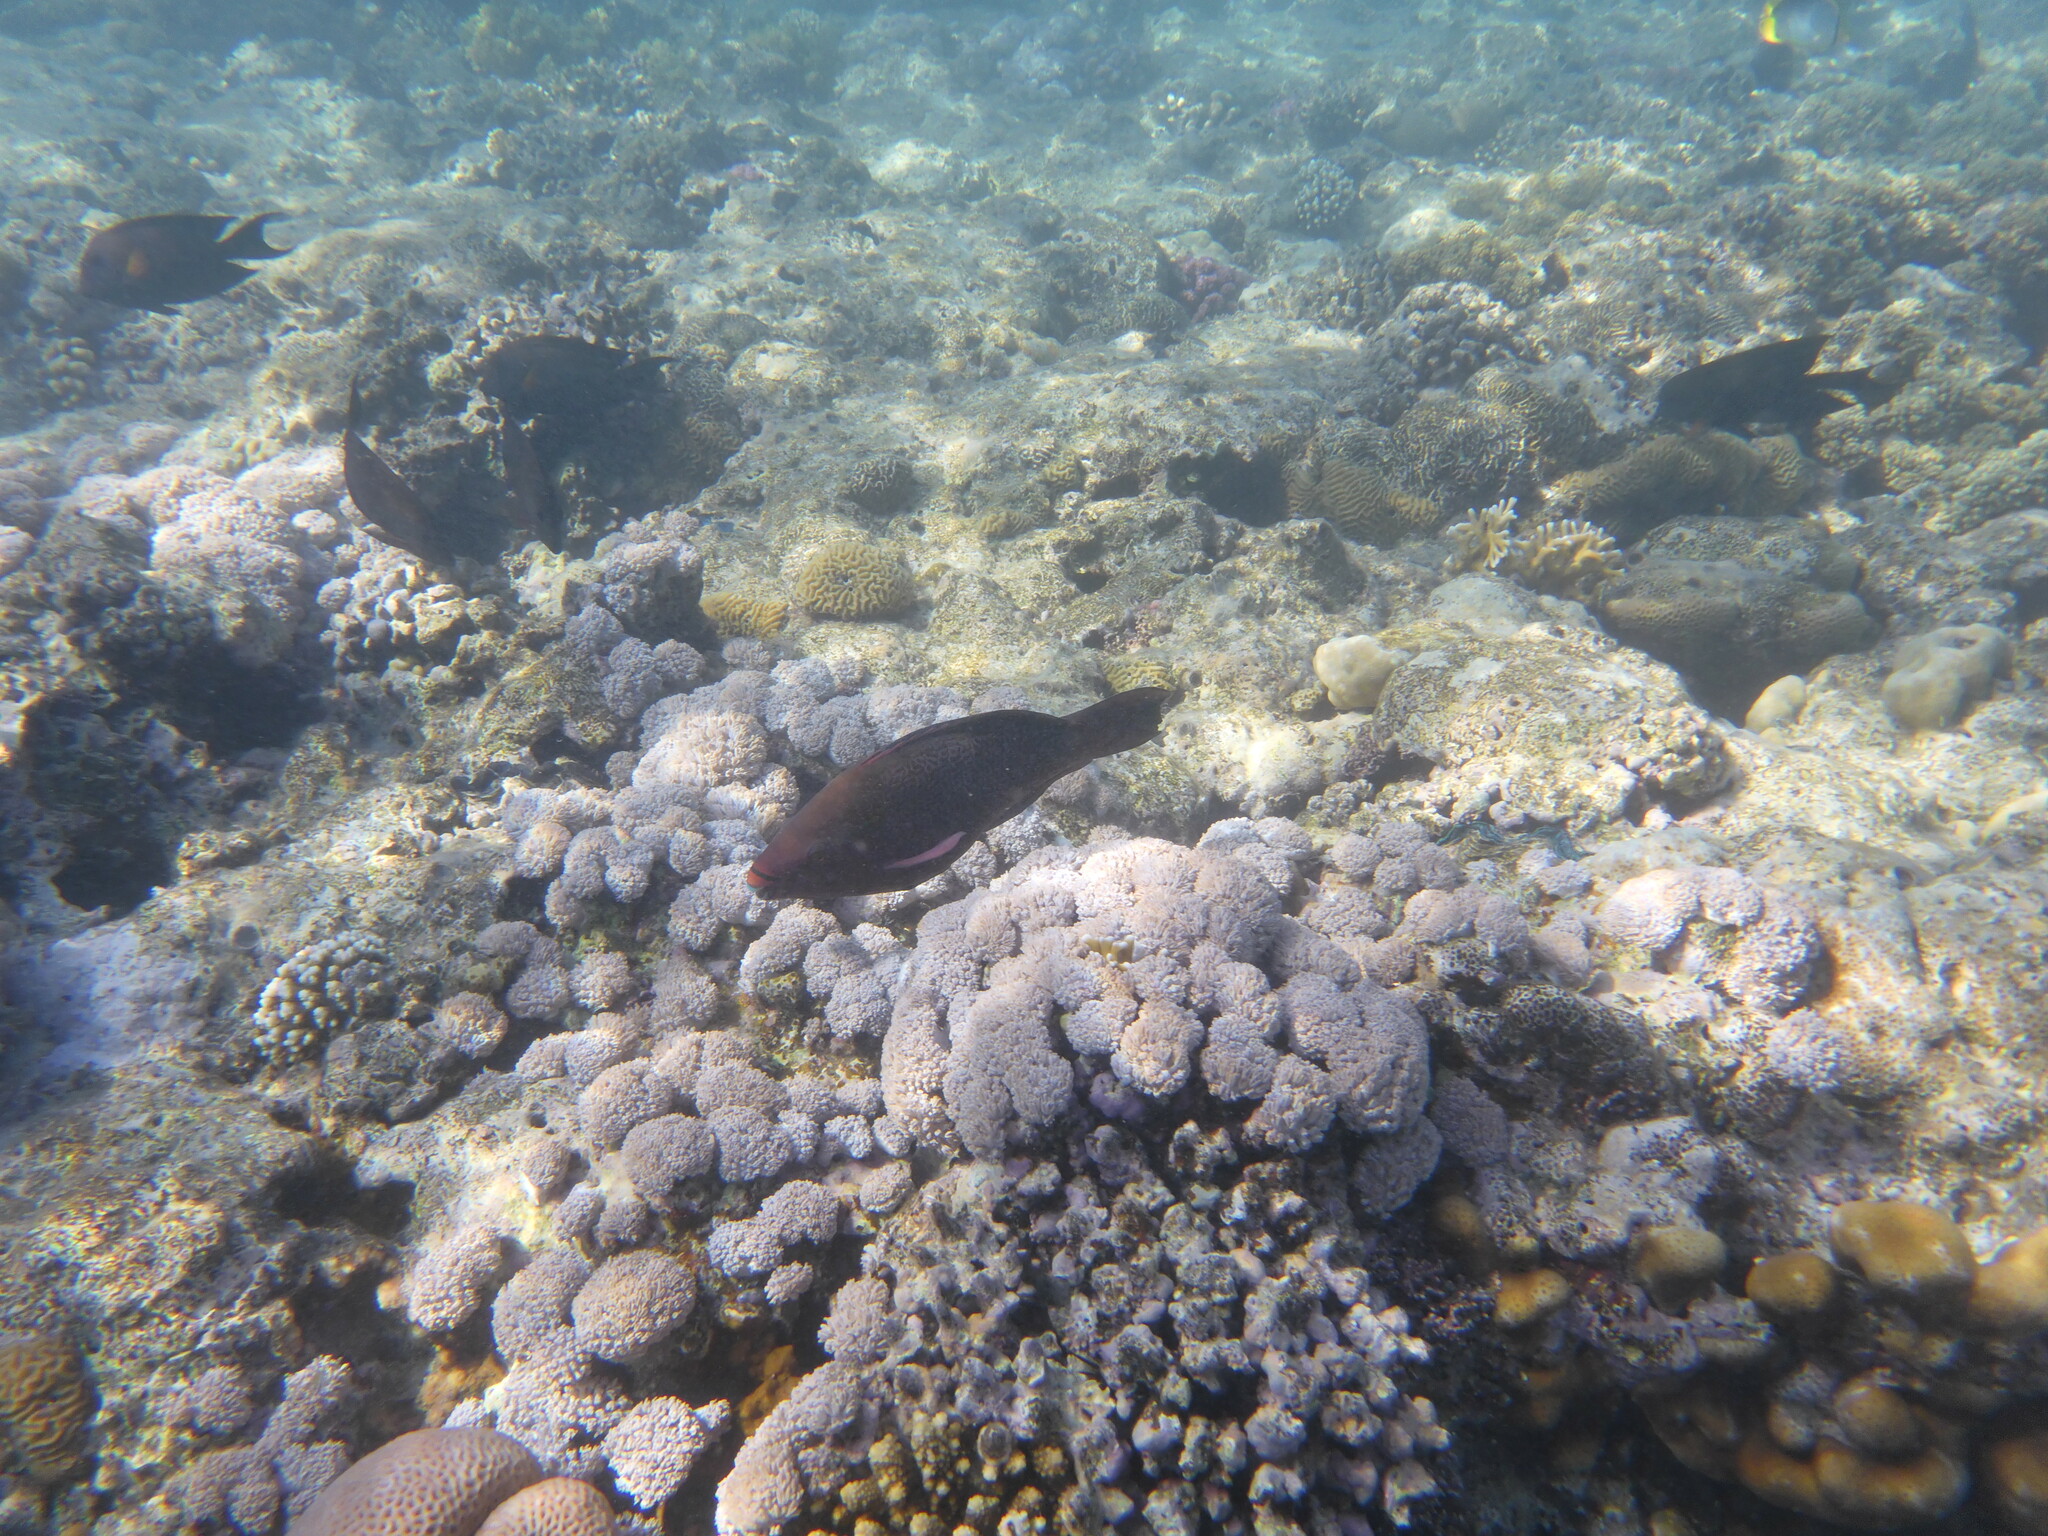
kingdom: Animalia
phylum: Chordata
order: Perciformes
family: Scaridae
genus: Scarus
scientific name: Scarus niger
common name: Dusky parrotfish
